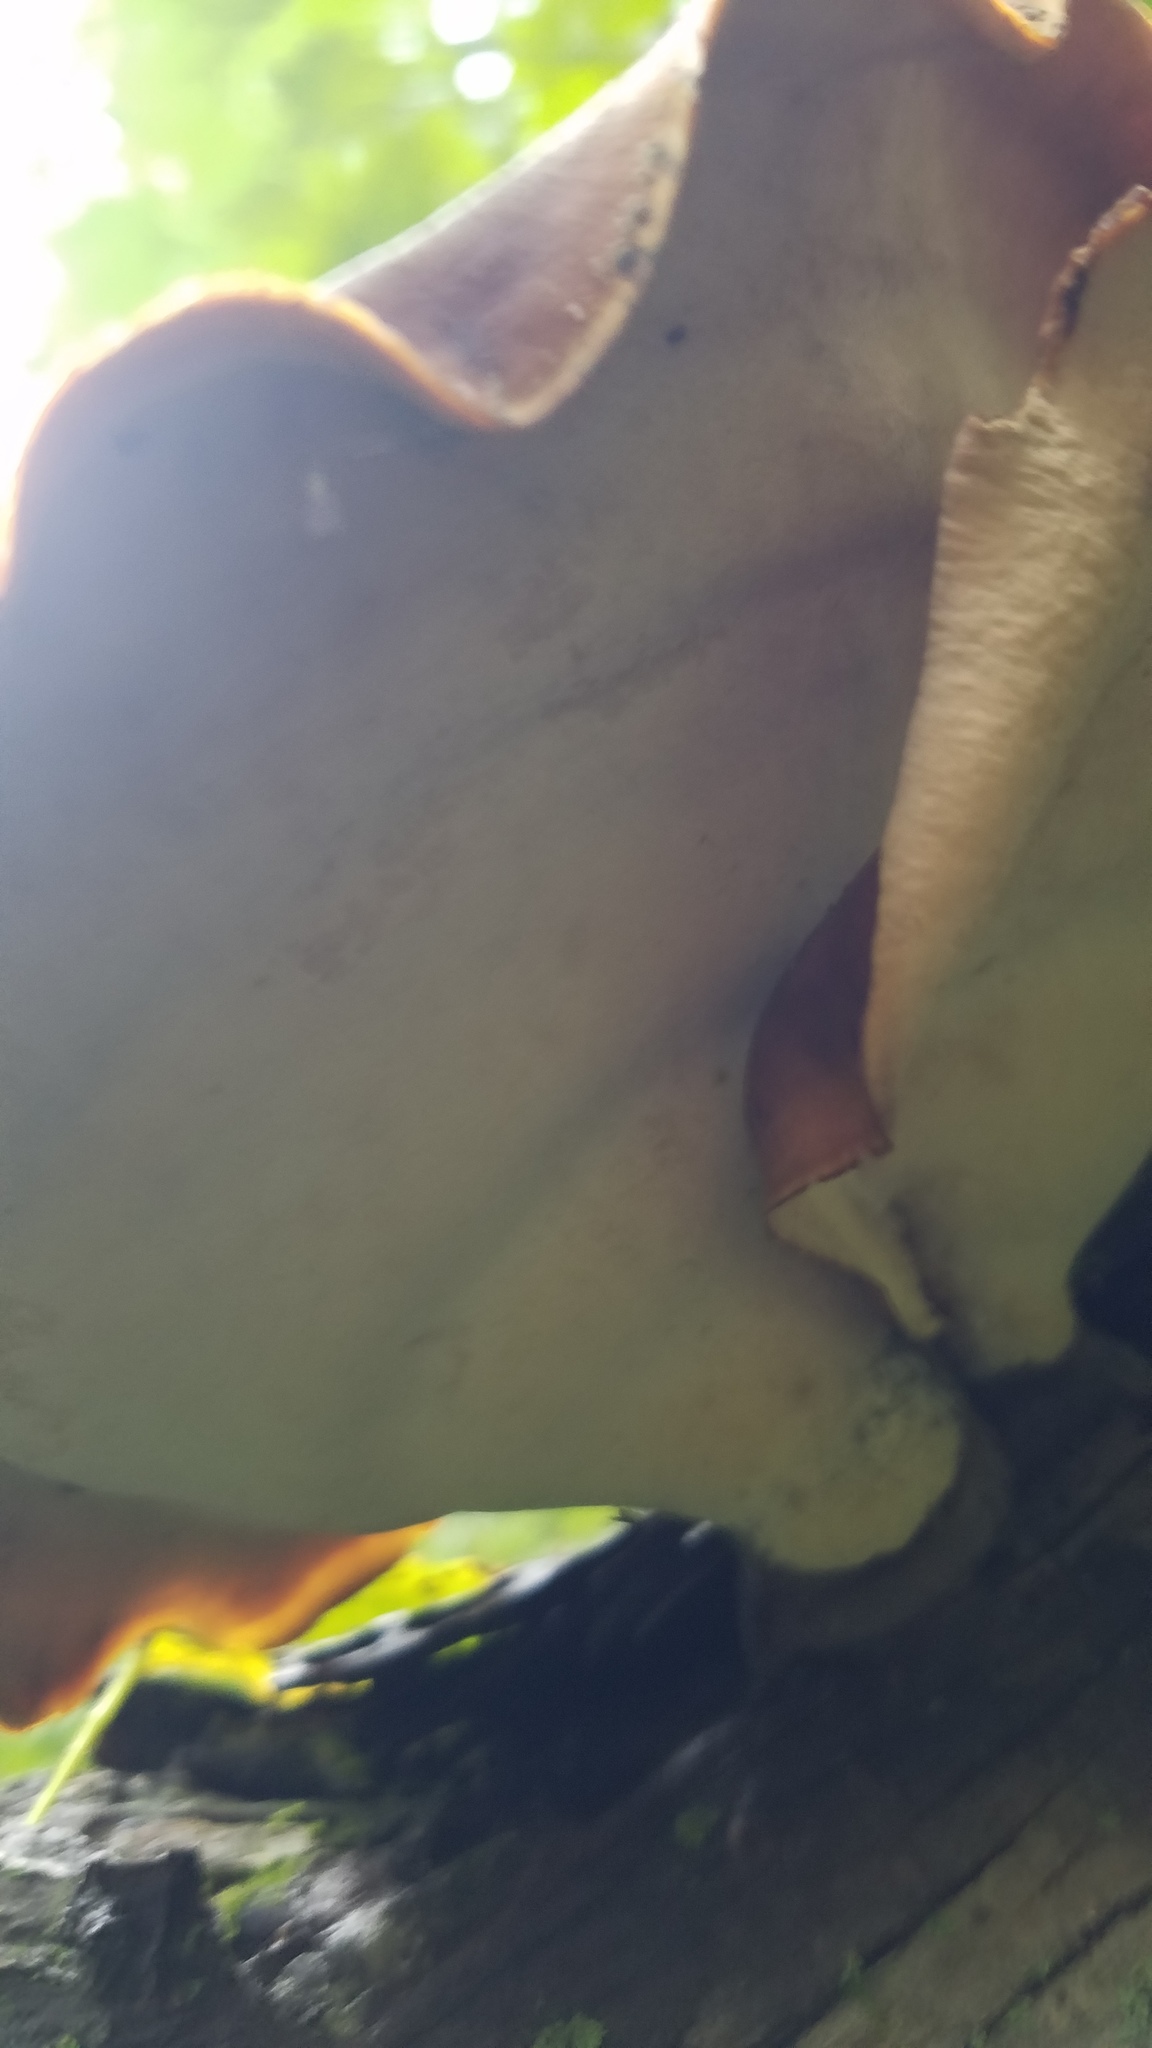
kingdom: Fungi
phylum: Basidiomycota
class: Agaricomycetes
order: Polyporales
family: Polyporaceae
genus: Picipes
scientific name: Picipes badius
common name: Bay polypore
